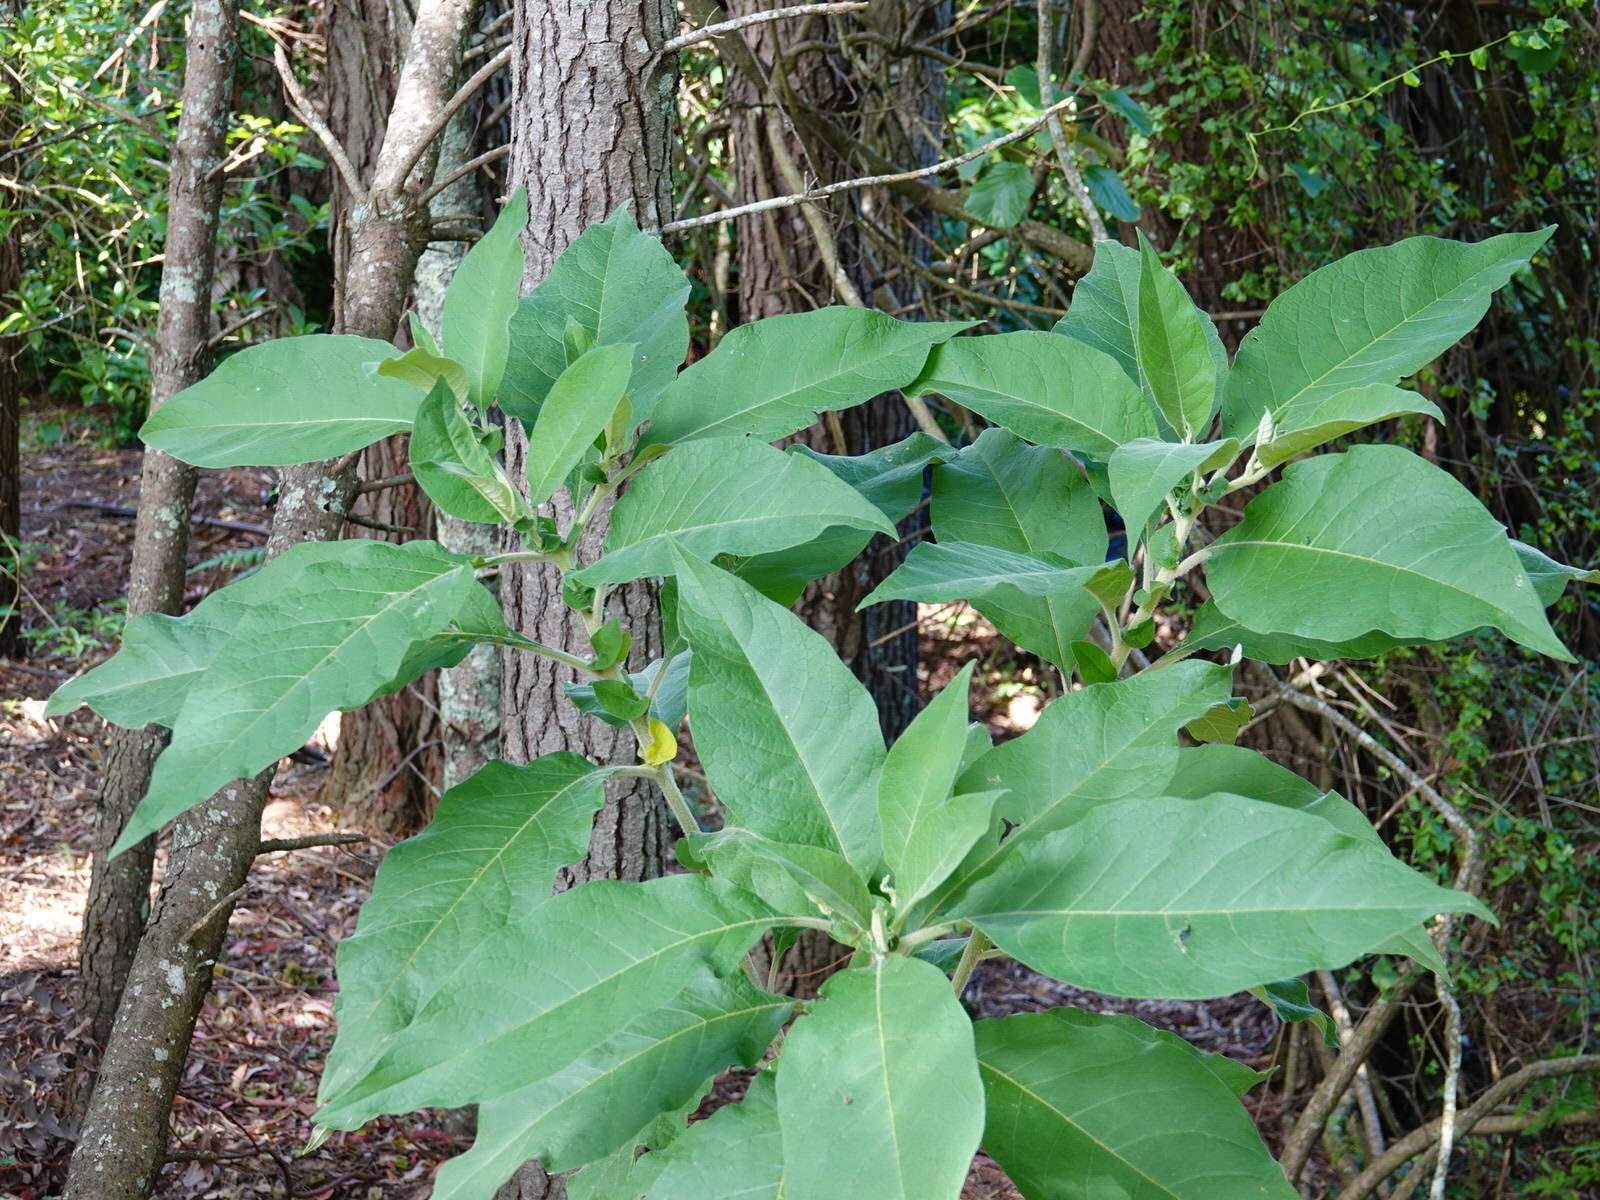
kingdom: Plantae
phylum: Tracheophyta
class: Magnoliopsida
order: Solanales
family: Solanaceae
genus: Solanum
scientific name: Solanum mauritianum
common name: Earleaf nightshade
